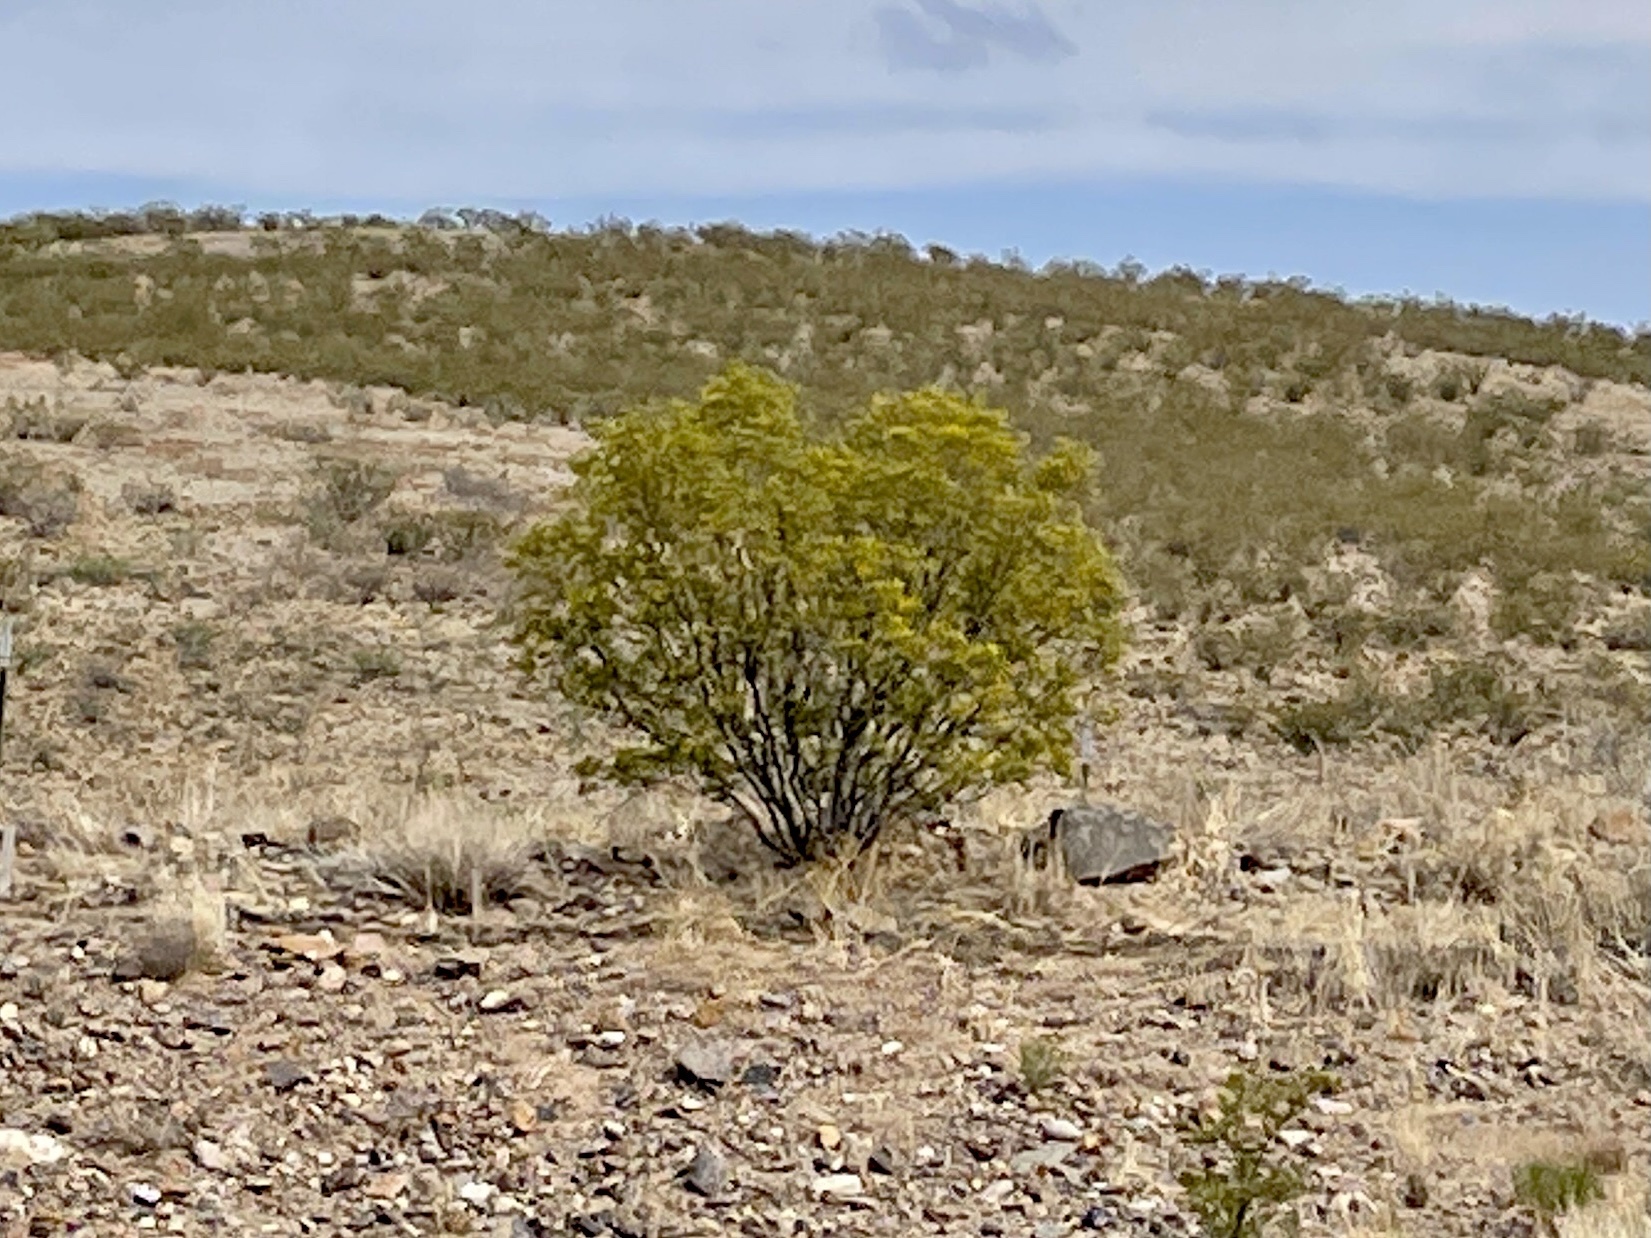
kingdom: Plantae
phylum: Tracheophyta
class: Magnoliopsida
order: Zygophyllales
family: Zygophyllaceae
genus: Larrea
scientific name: Larrea tridentata
